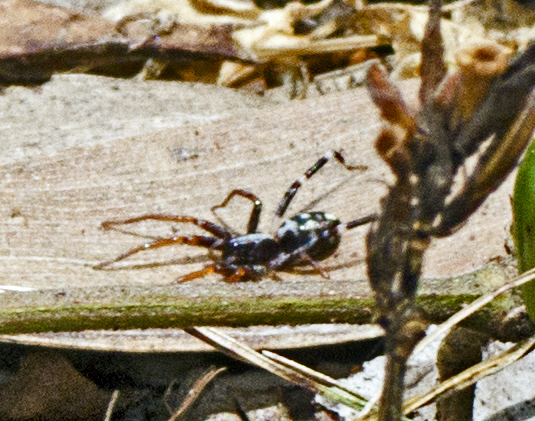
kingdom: Animalia
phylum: Arthropoda
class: Arachnida
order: Araneae
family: Corinnidae
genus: Nyssus
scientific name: Nyssus coloripes
